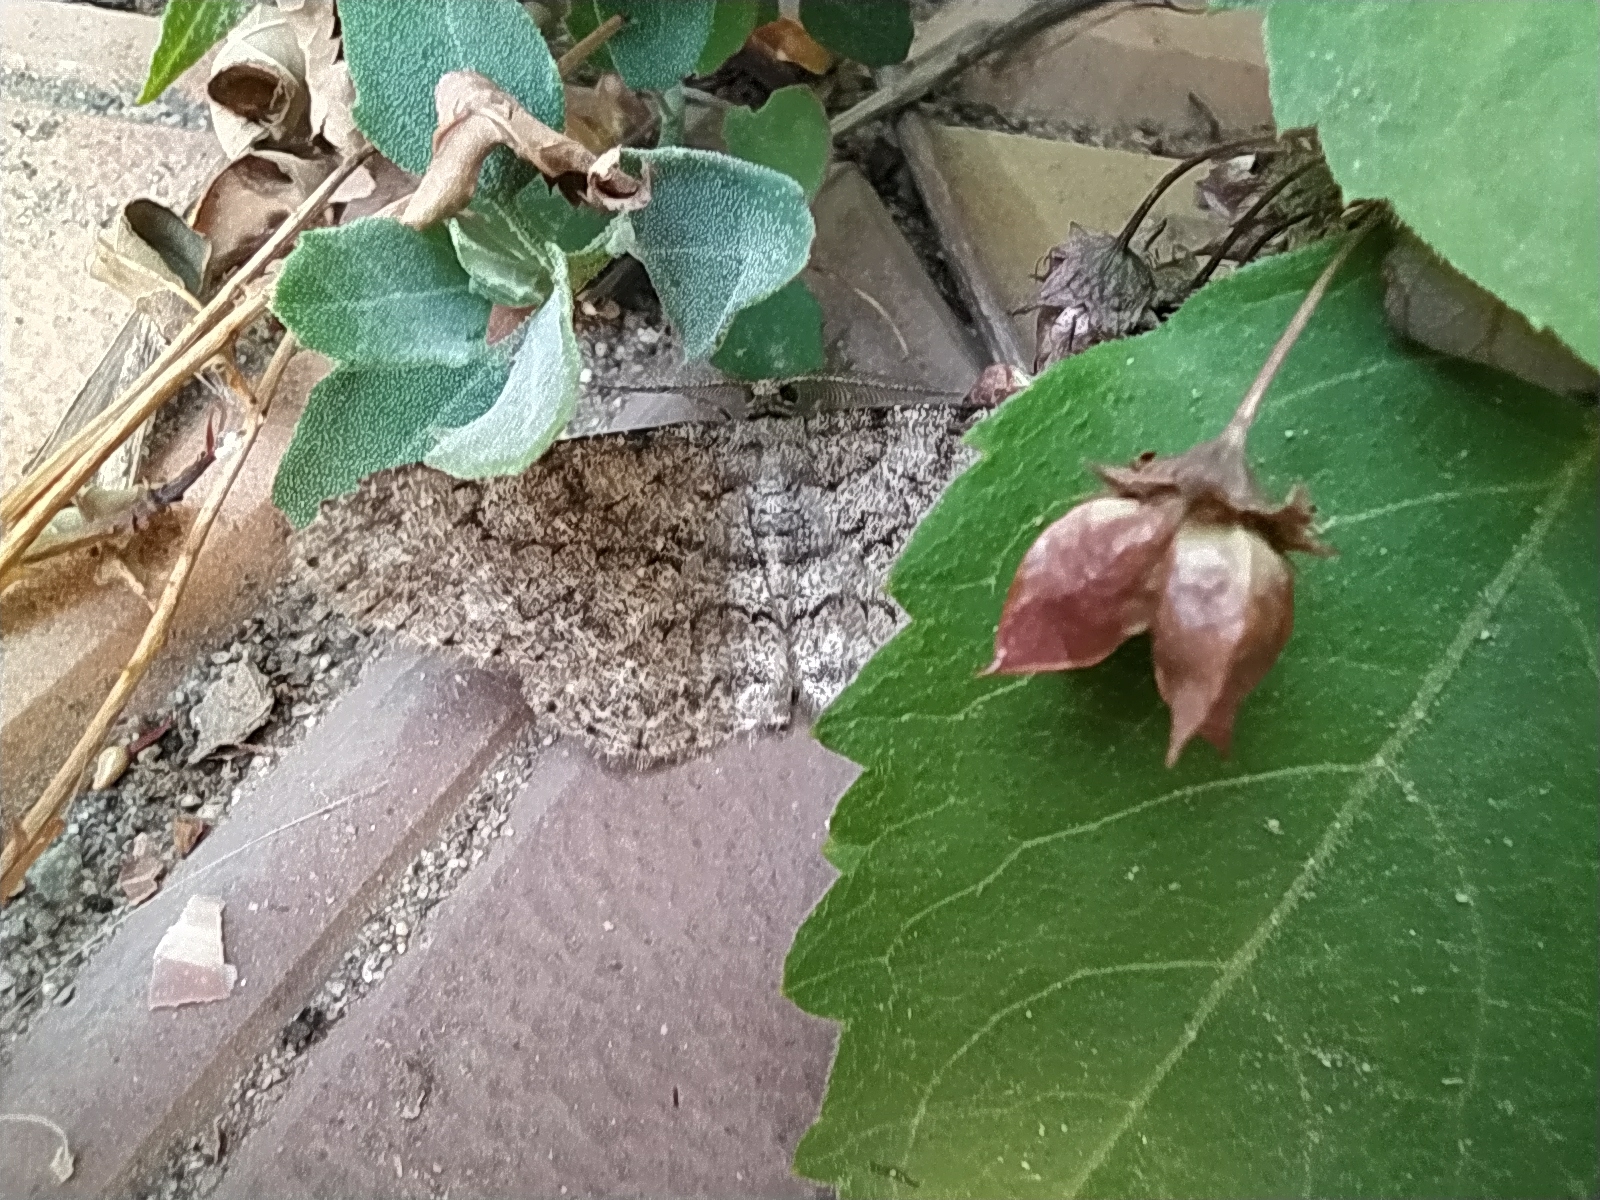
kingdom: Animalia
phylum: Arthropoda
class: Insecta
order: Lepidoptera
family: Geometridae
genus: Hypomecis
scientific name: Hypomecis punctinalis
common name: Pale oak beauty
